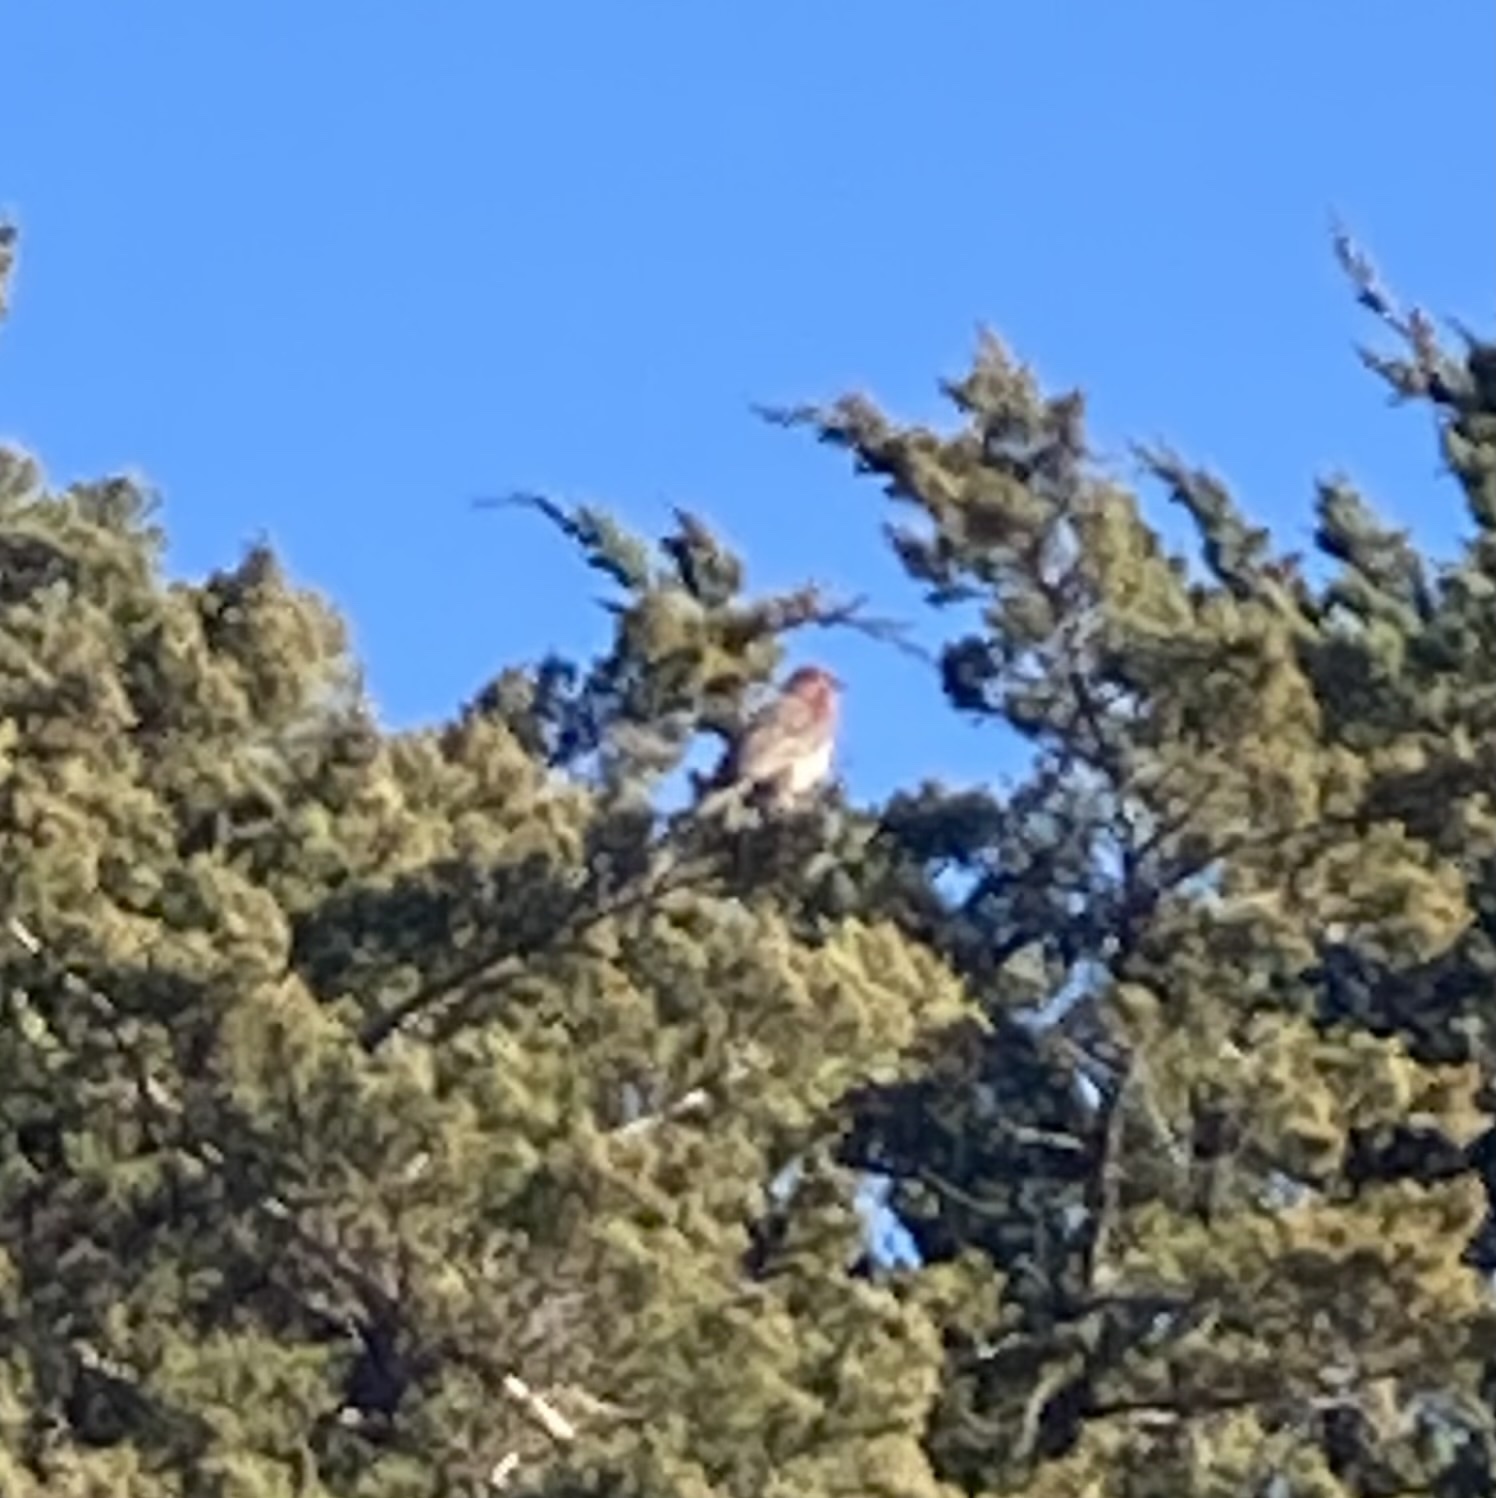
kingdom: Animalia
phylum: Chordata
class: Aves
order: Passeriformes
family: Fringillidae
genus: Haemorhous
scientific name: Haemorhous mexicanus
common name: House finch
